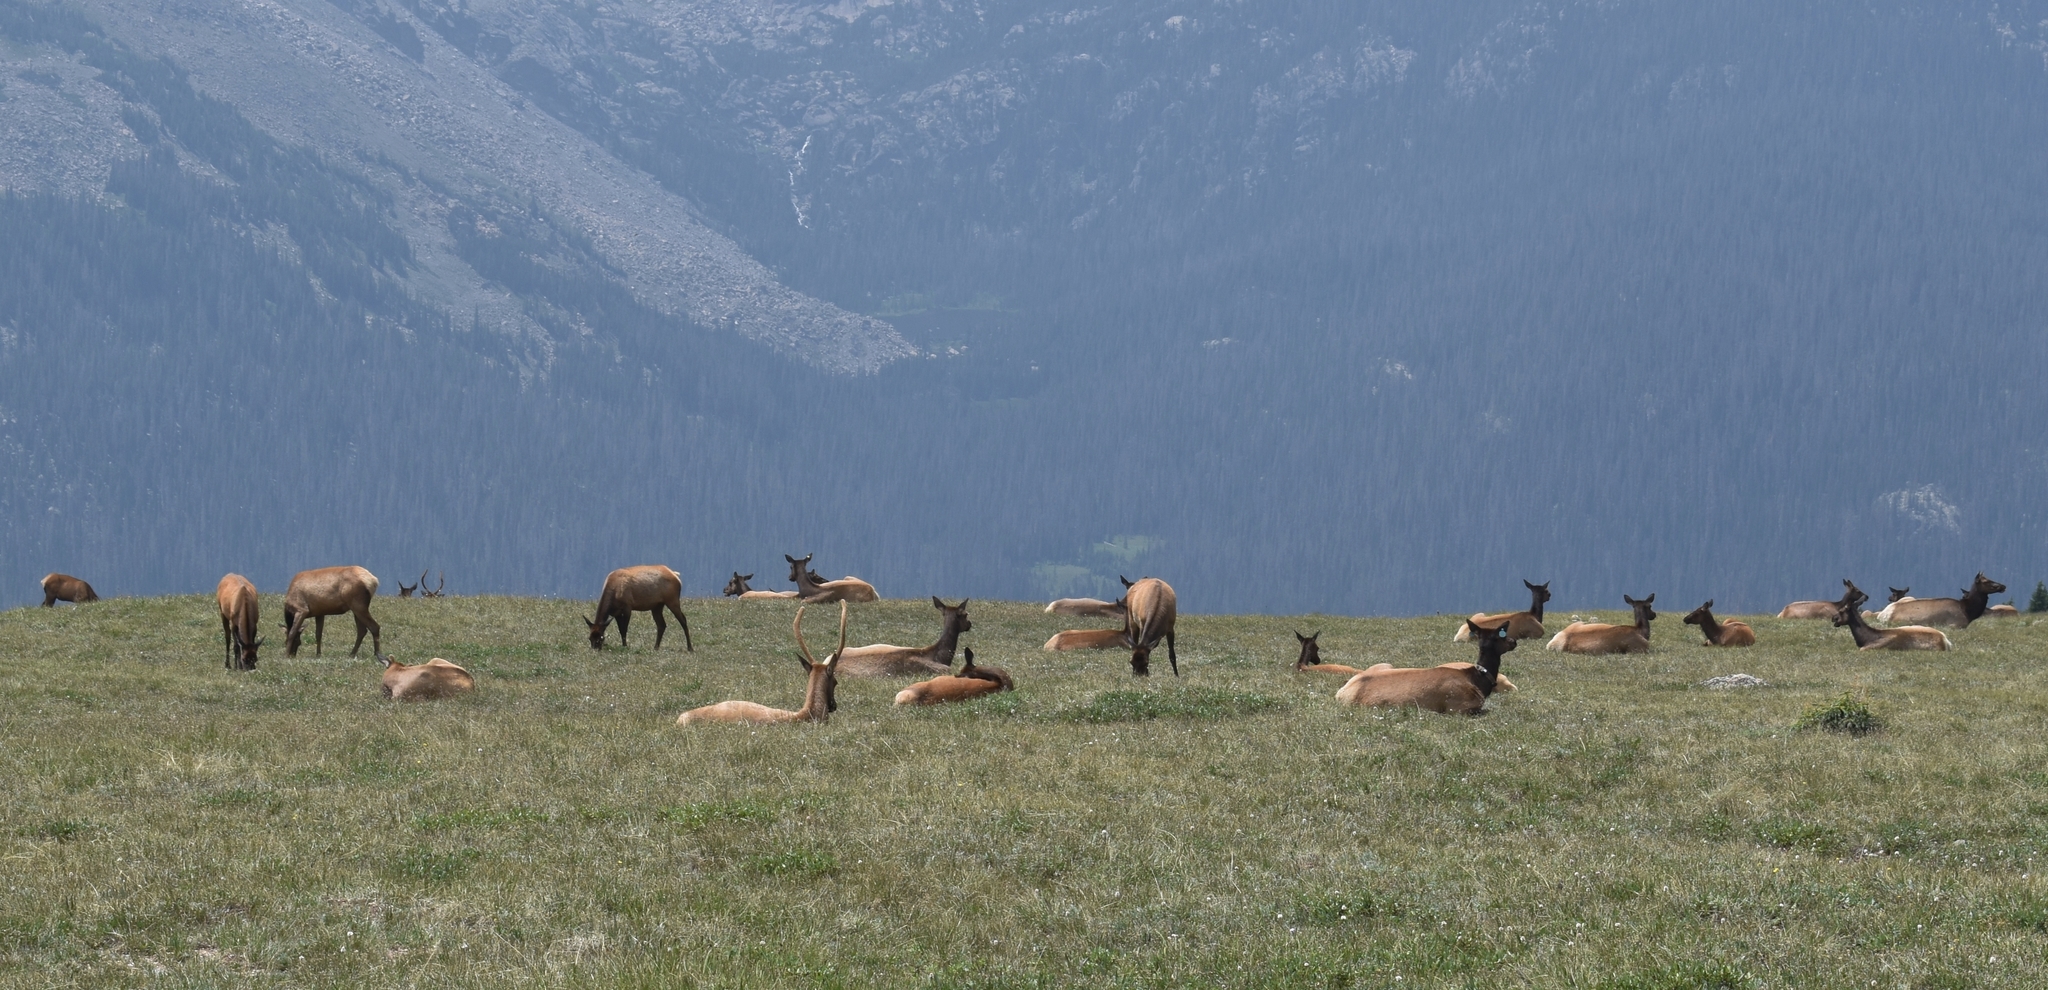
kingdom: Animalia
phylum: Chordata
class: Mammalia
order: Artiodactyla
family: Cervidae
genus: Cervus
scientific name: Cervus elaphus
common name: Red deer
